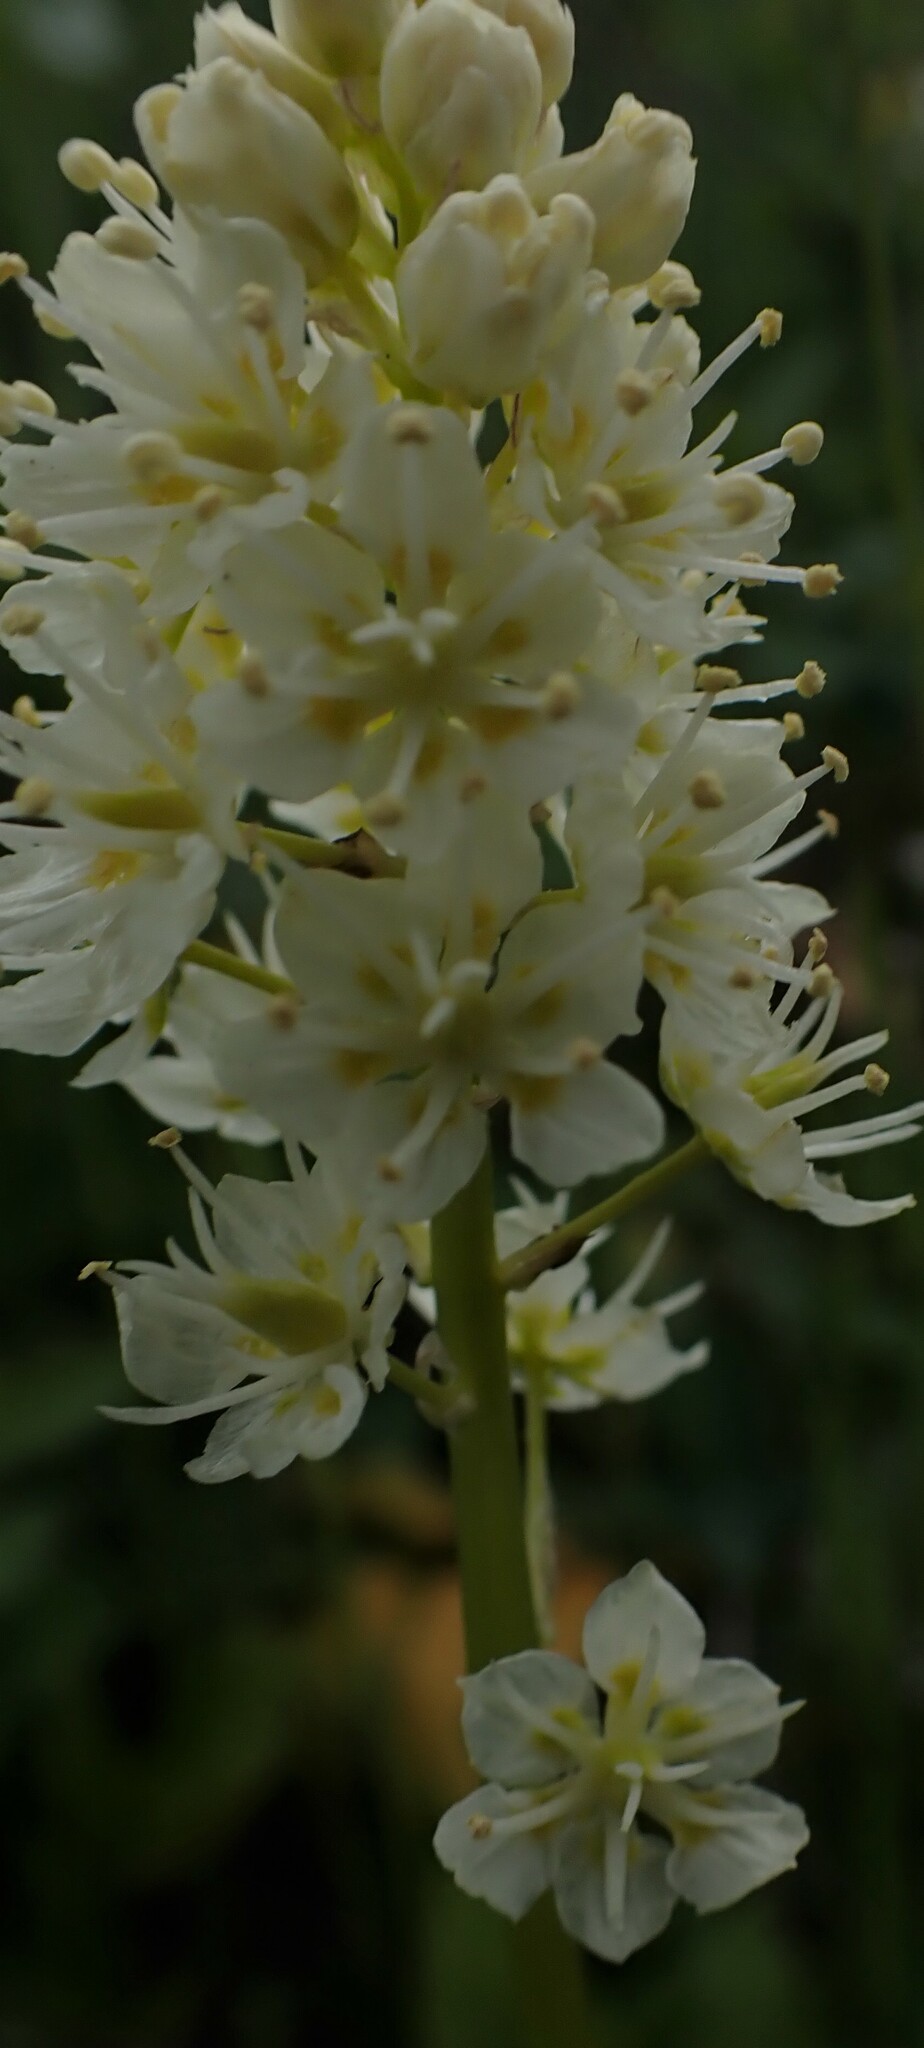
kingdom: Plantae
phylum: Tracheophyta
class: Liliopsida
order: Liliales
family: Melanthiaceae
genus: Toxicoscordion
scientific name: Toxicoscordion venenosum
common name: Meadow death camas
